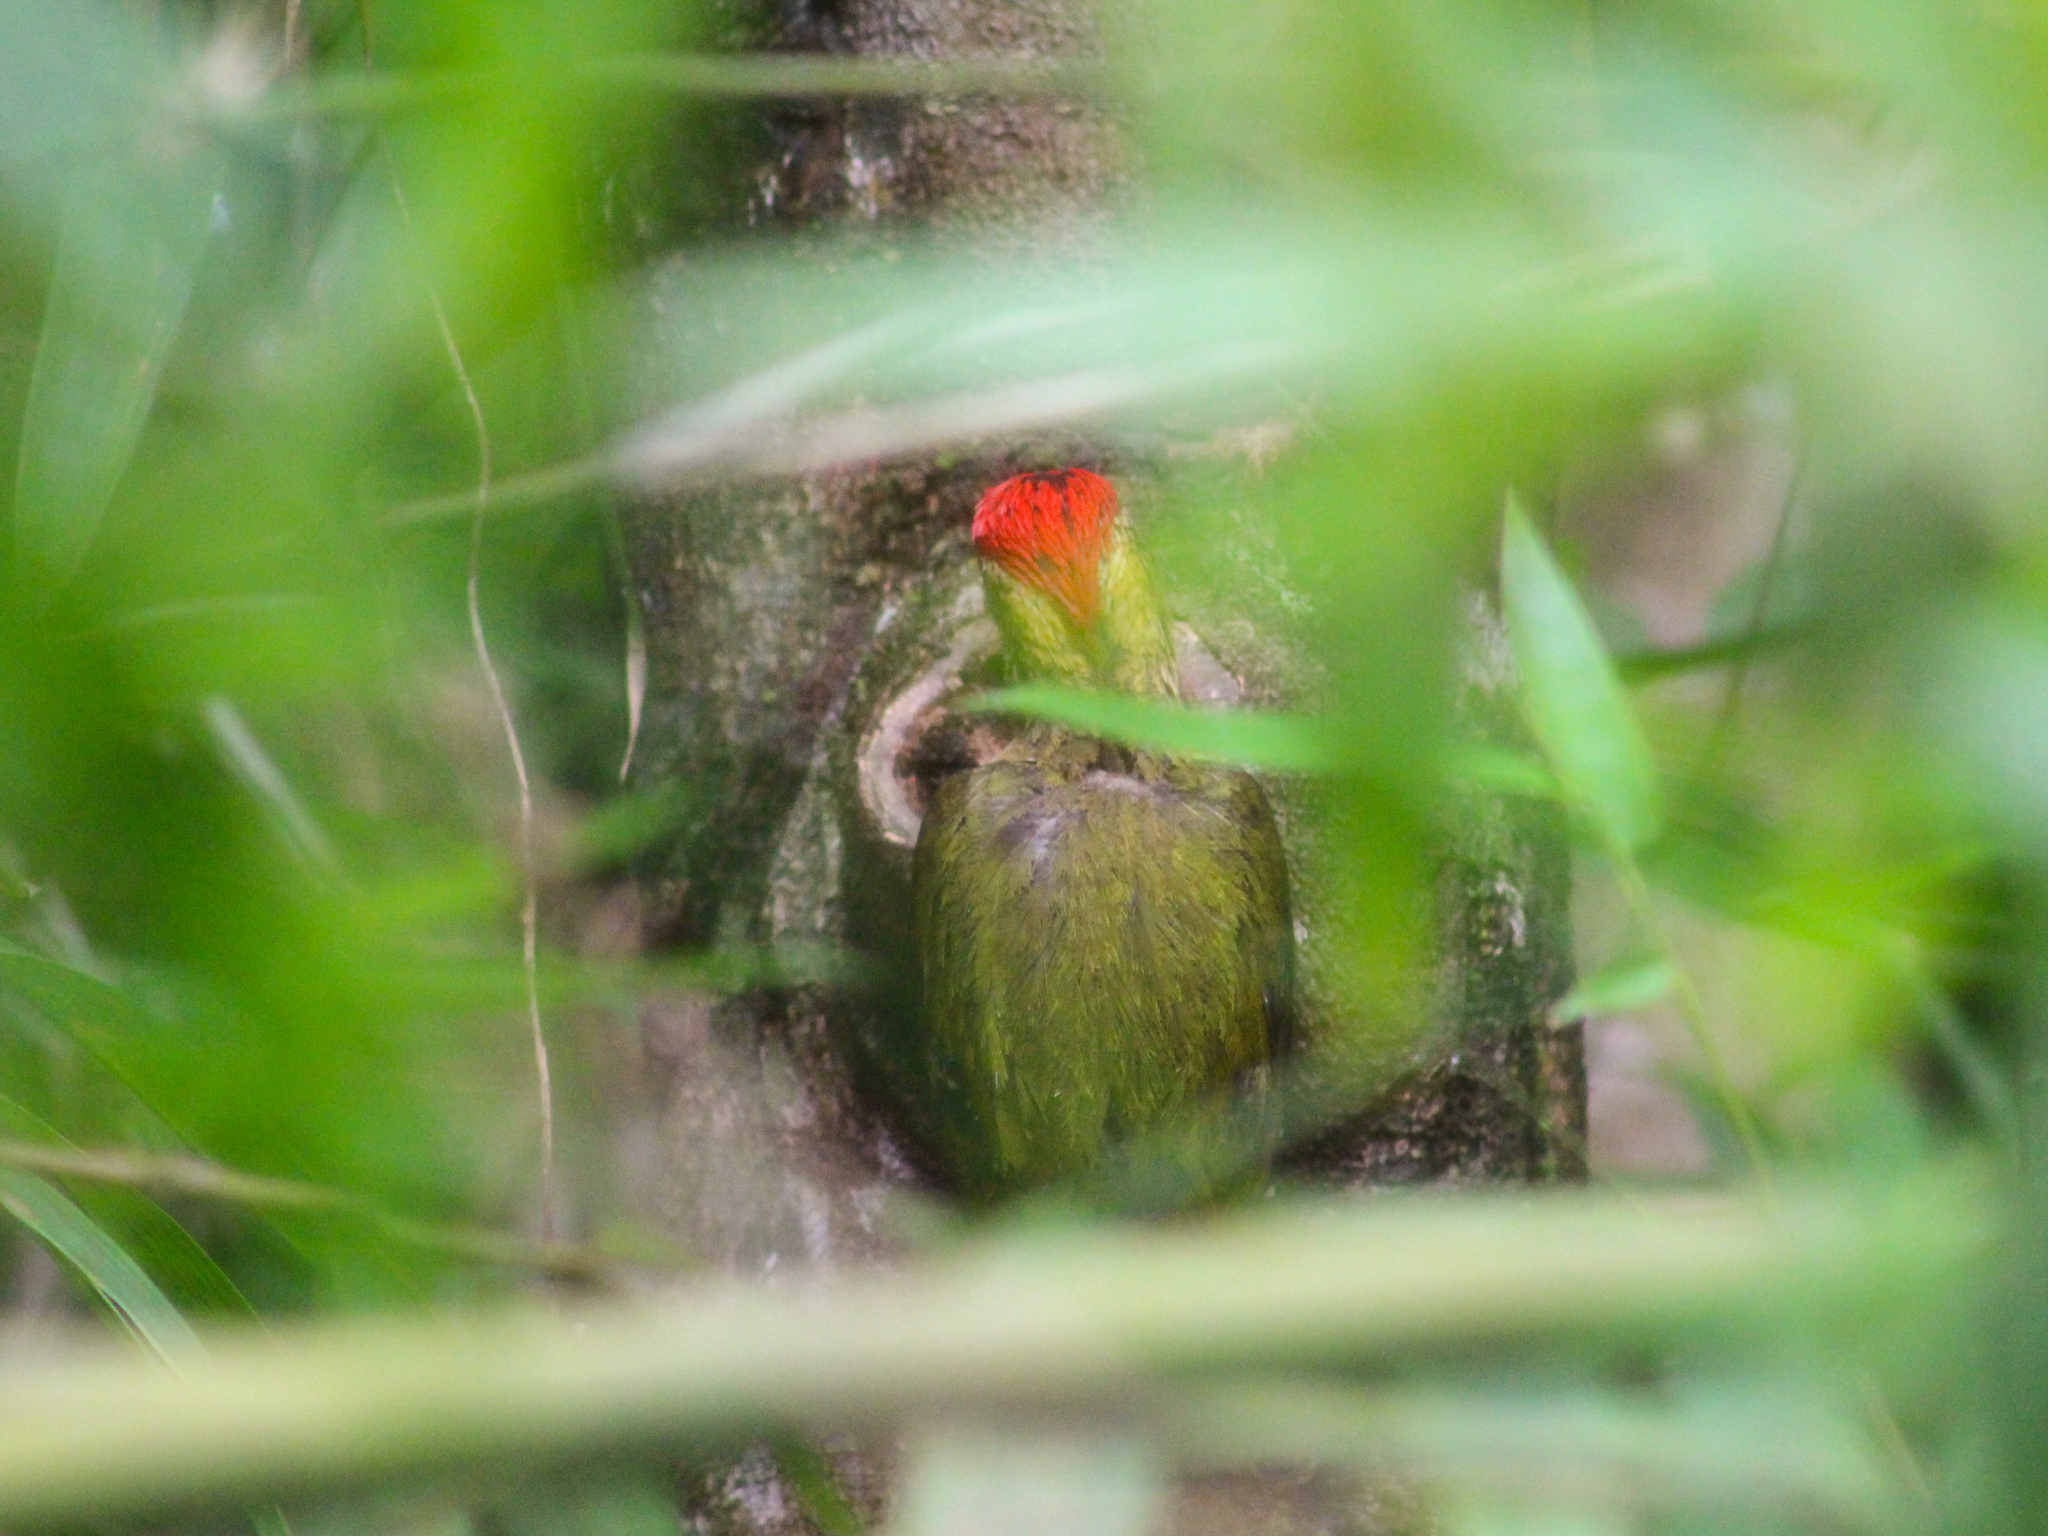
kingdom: Animalia
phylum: Chordata
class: Aves
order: Piciformes
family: Picidae
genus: Picus
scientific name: Picus vittatus
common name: Laced woodpecker
